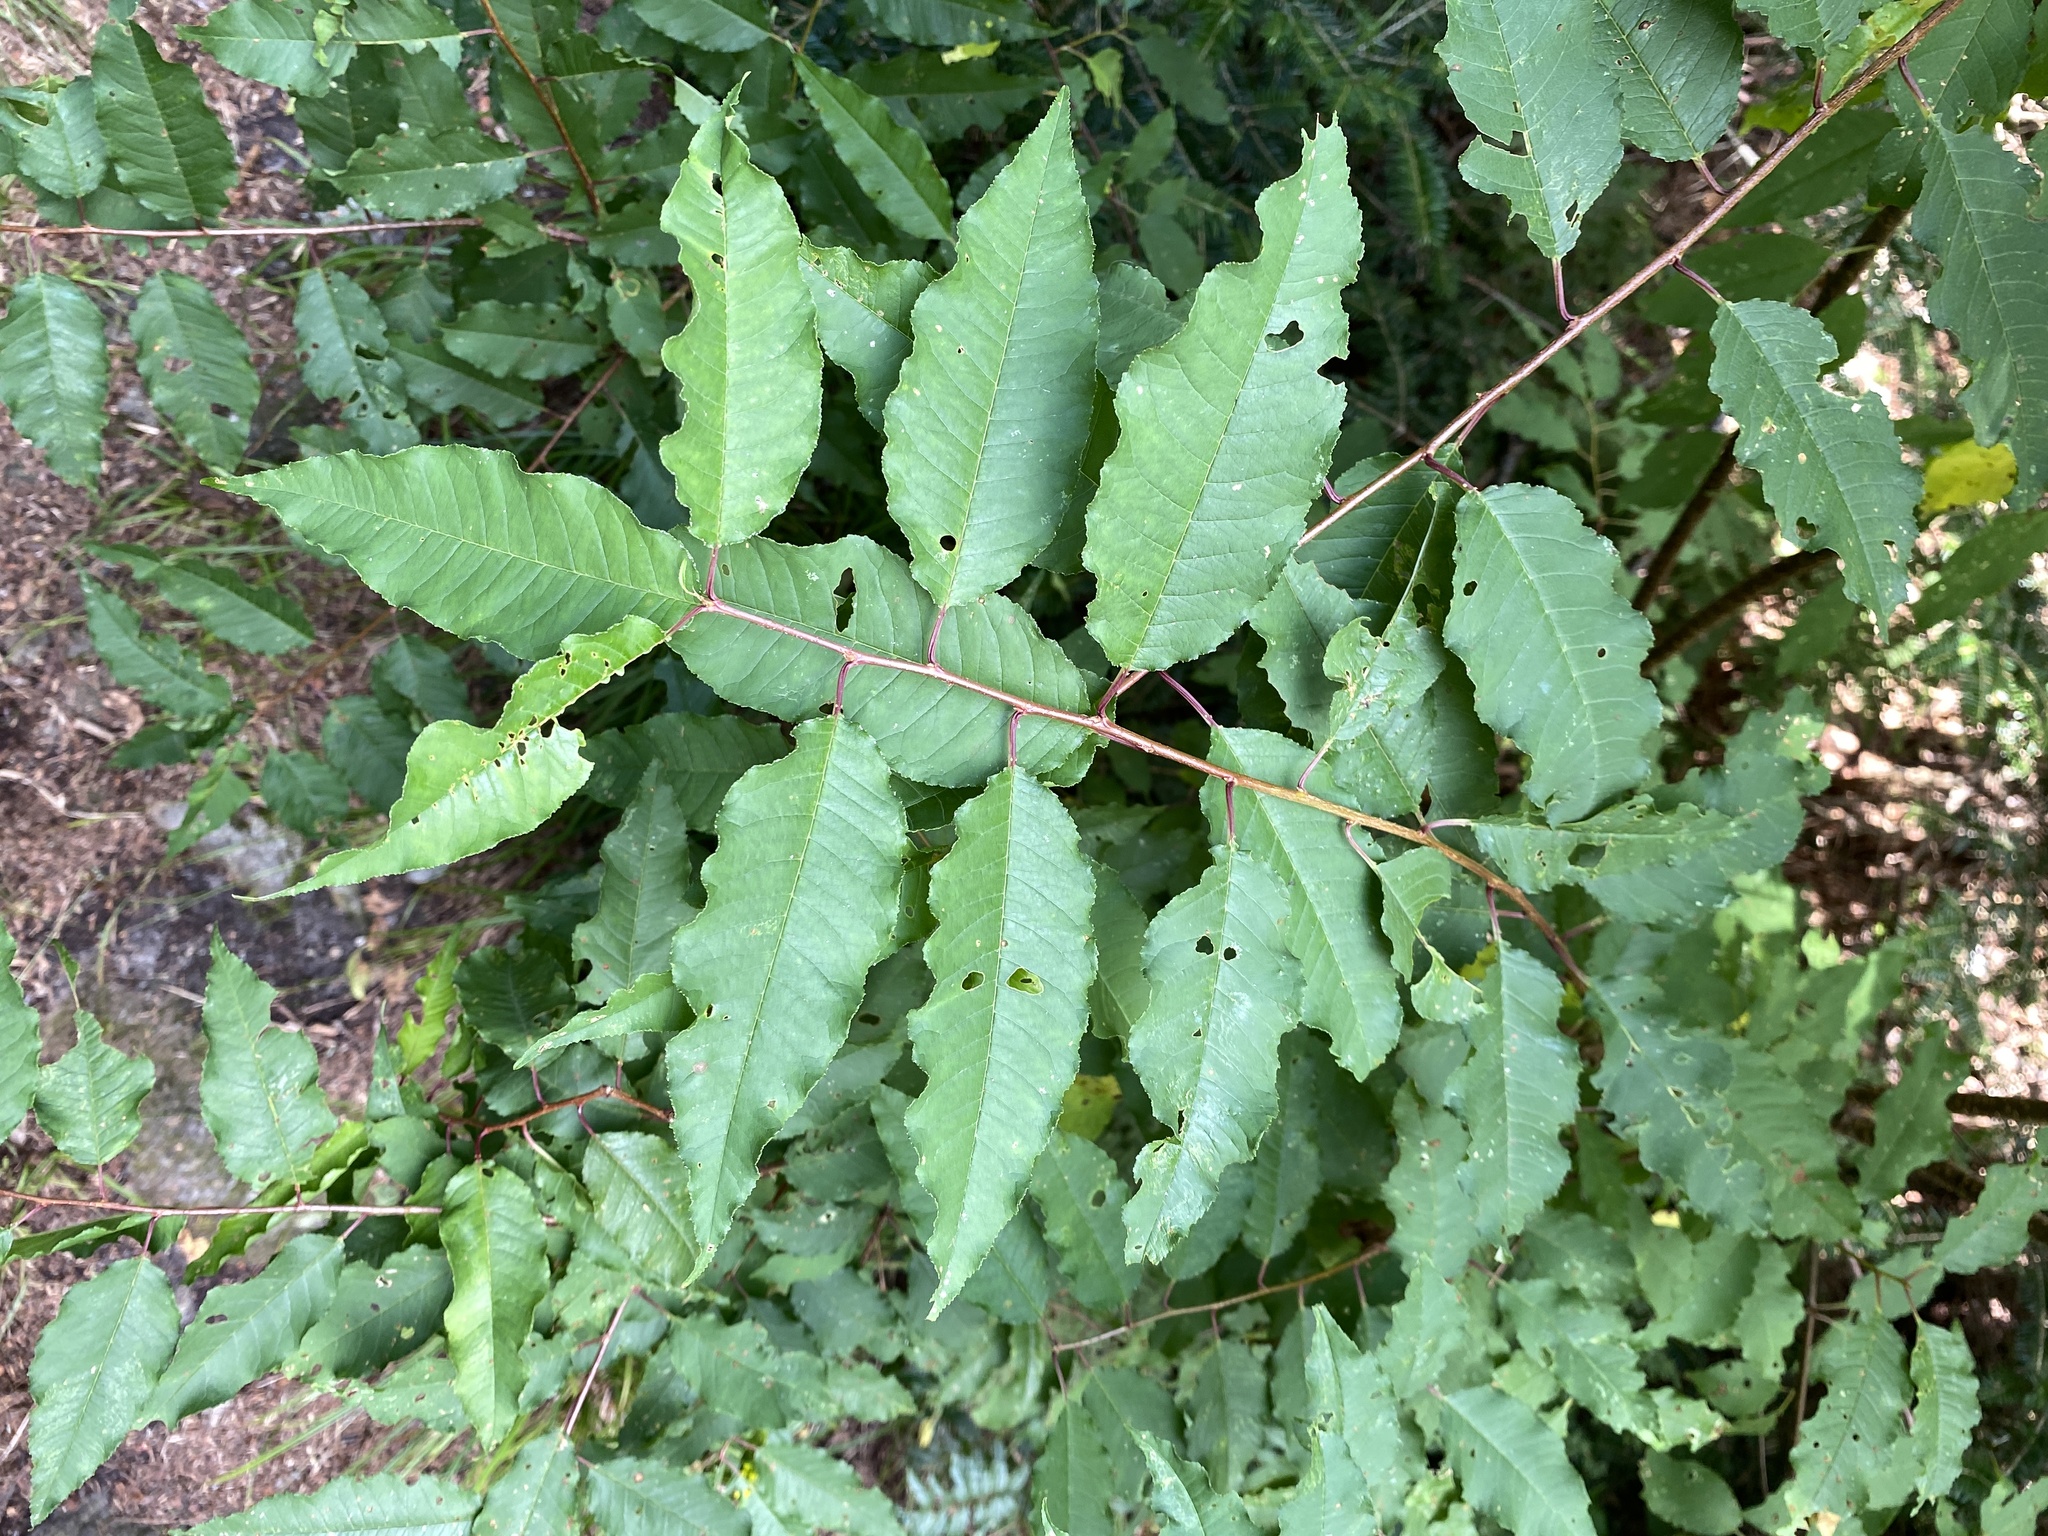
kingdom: Plantae
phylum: Tracheophyta
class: Magnoliopsida
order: Rosales
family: Rosaceae
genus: Prunus
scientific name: Prunus pensylvanica
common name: Pin cherry
